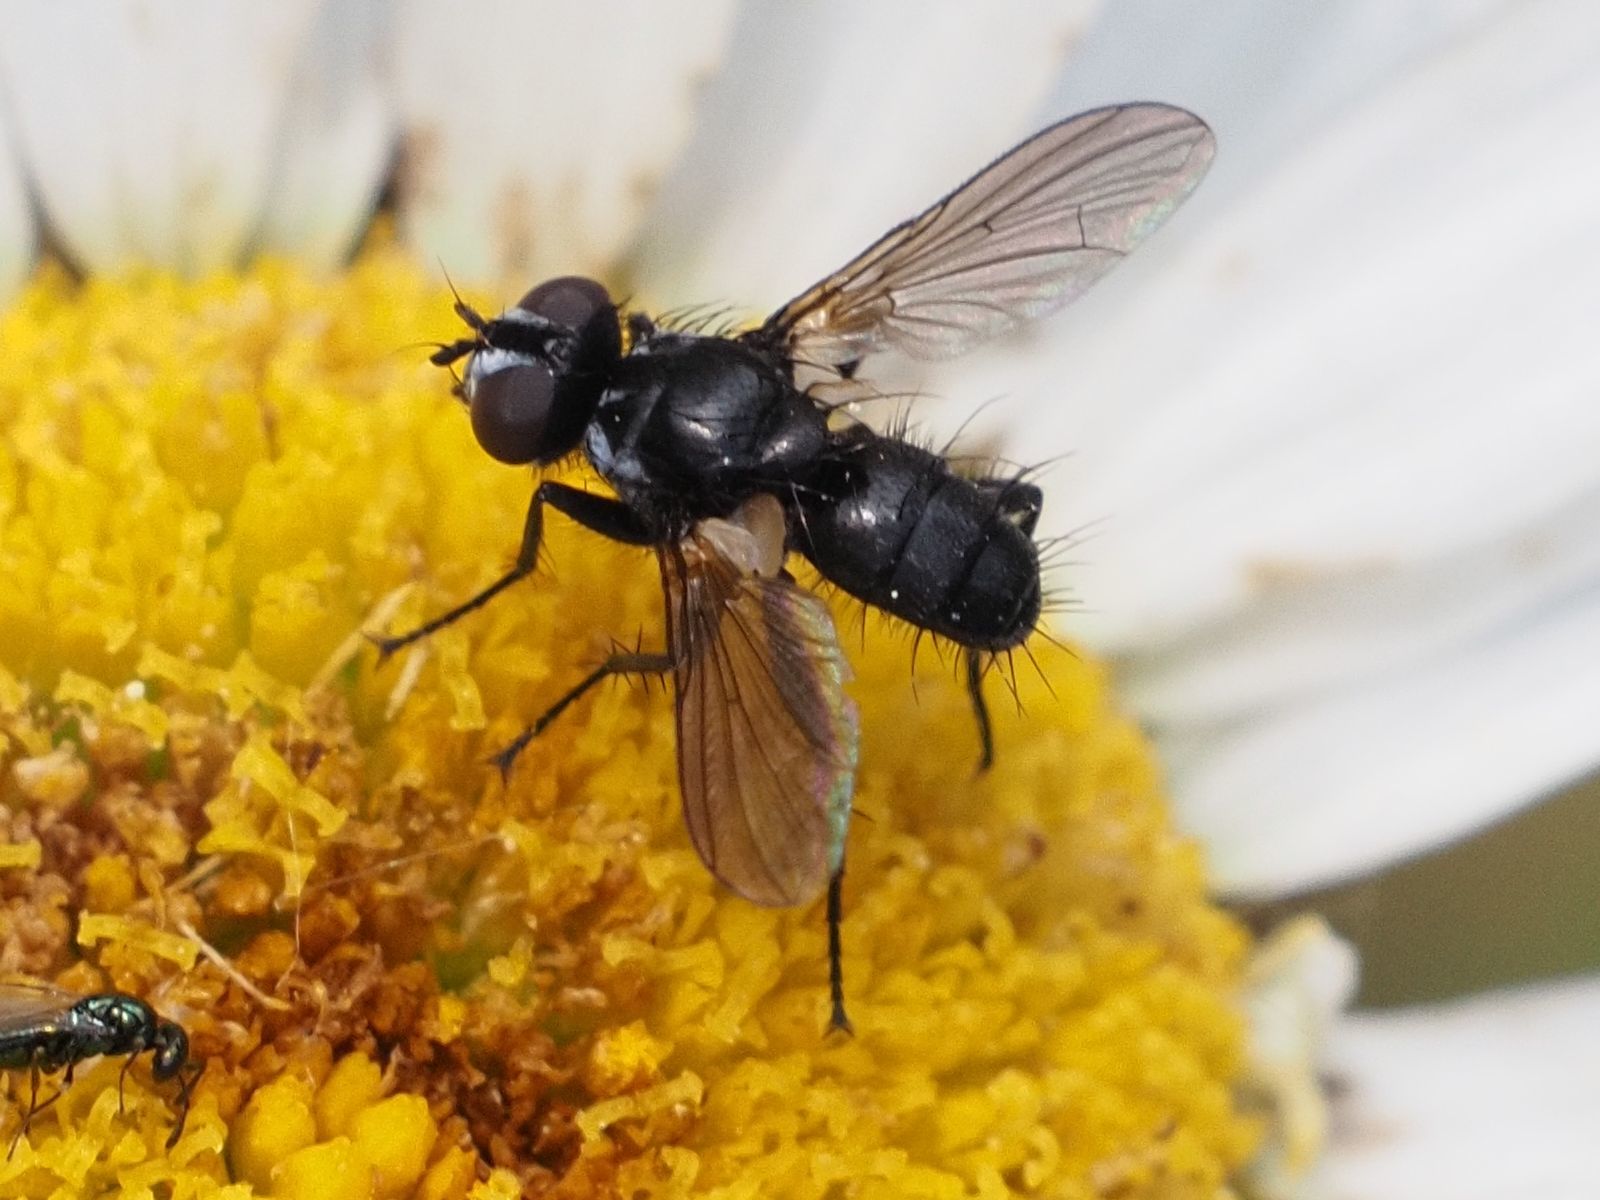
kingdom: Animalia
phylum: Arthropoda
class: Insecta
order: Diptera
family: Tachinidae
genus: Phania
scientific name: Phania funesta
